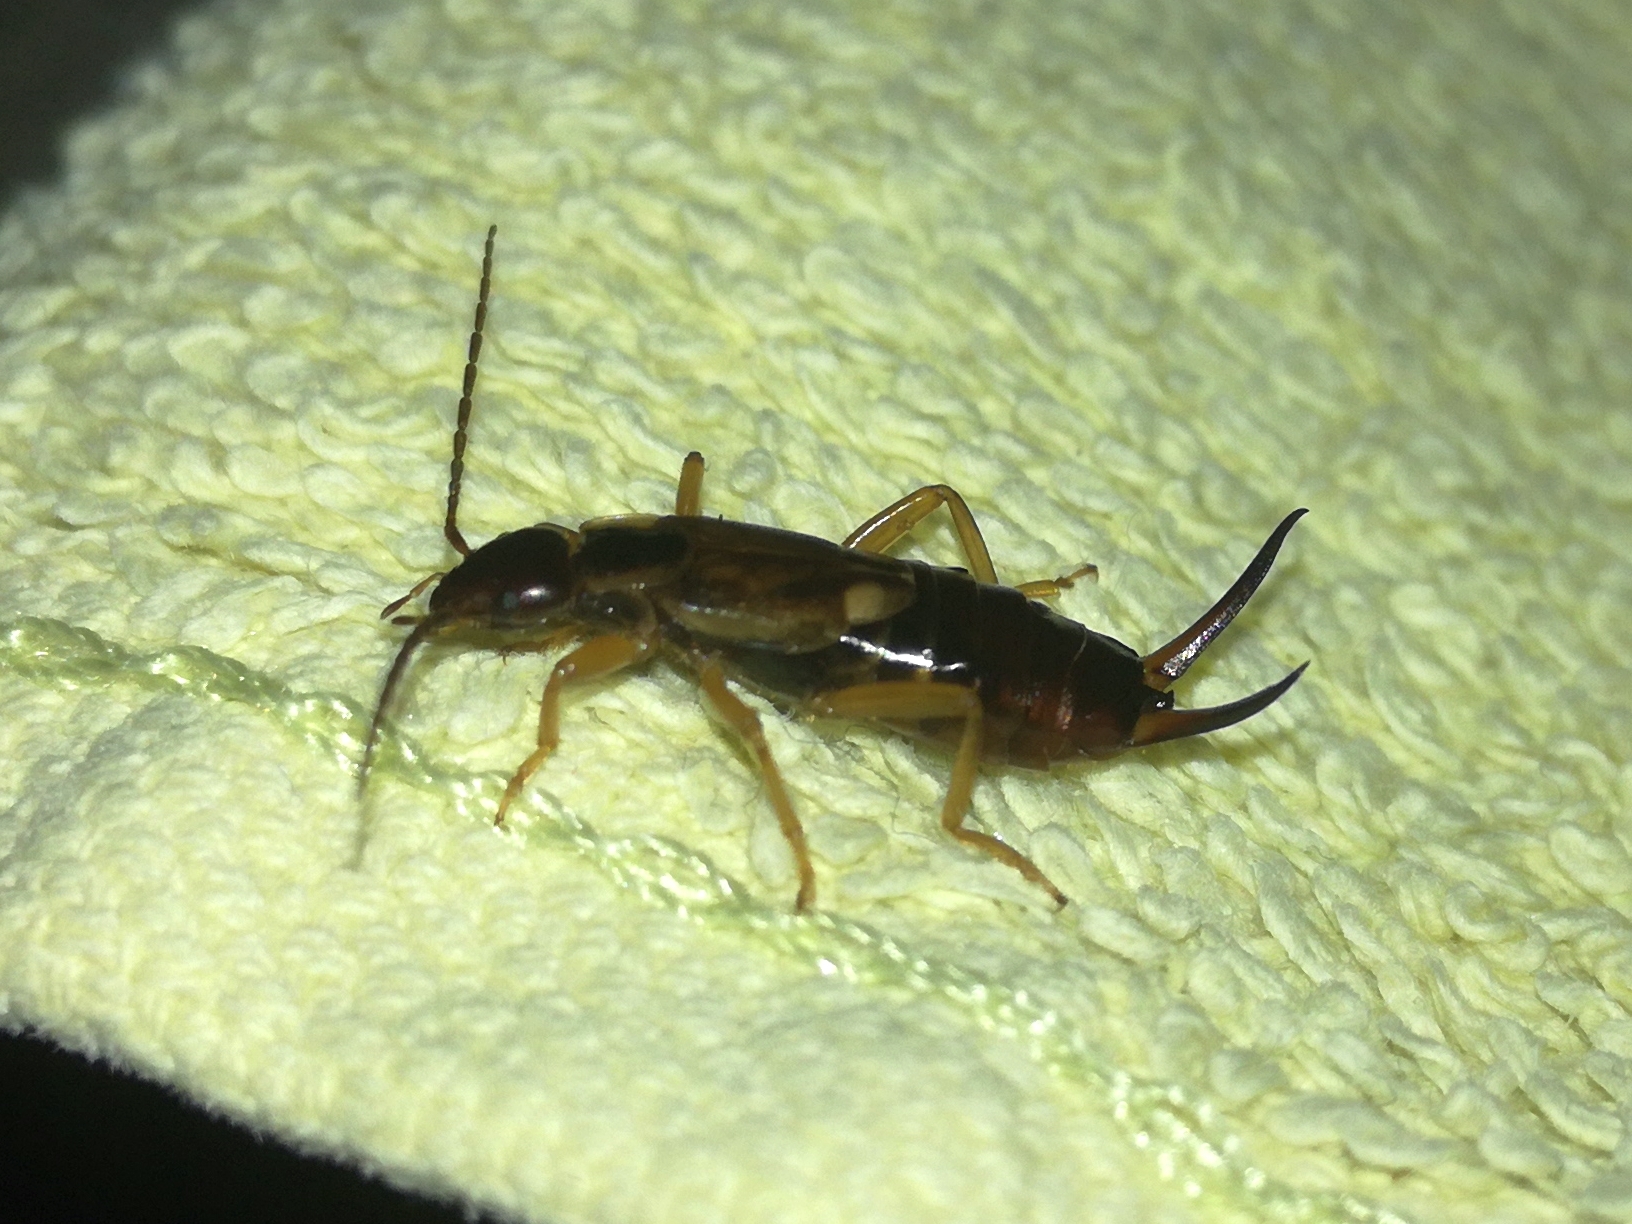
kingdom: Animalia
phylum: Arthropoda
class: Insecta
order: Dermaptera
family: Forficulidae
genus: Forficula
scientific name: Forficula
